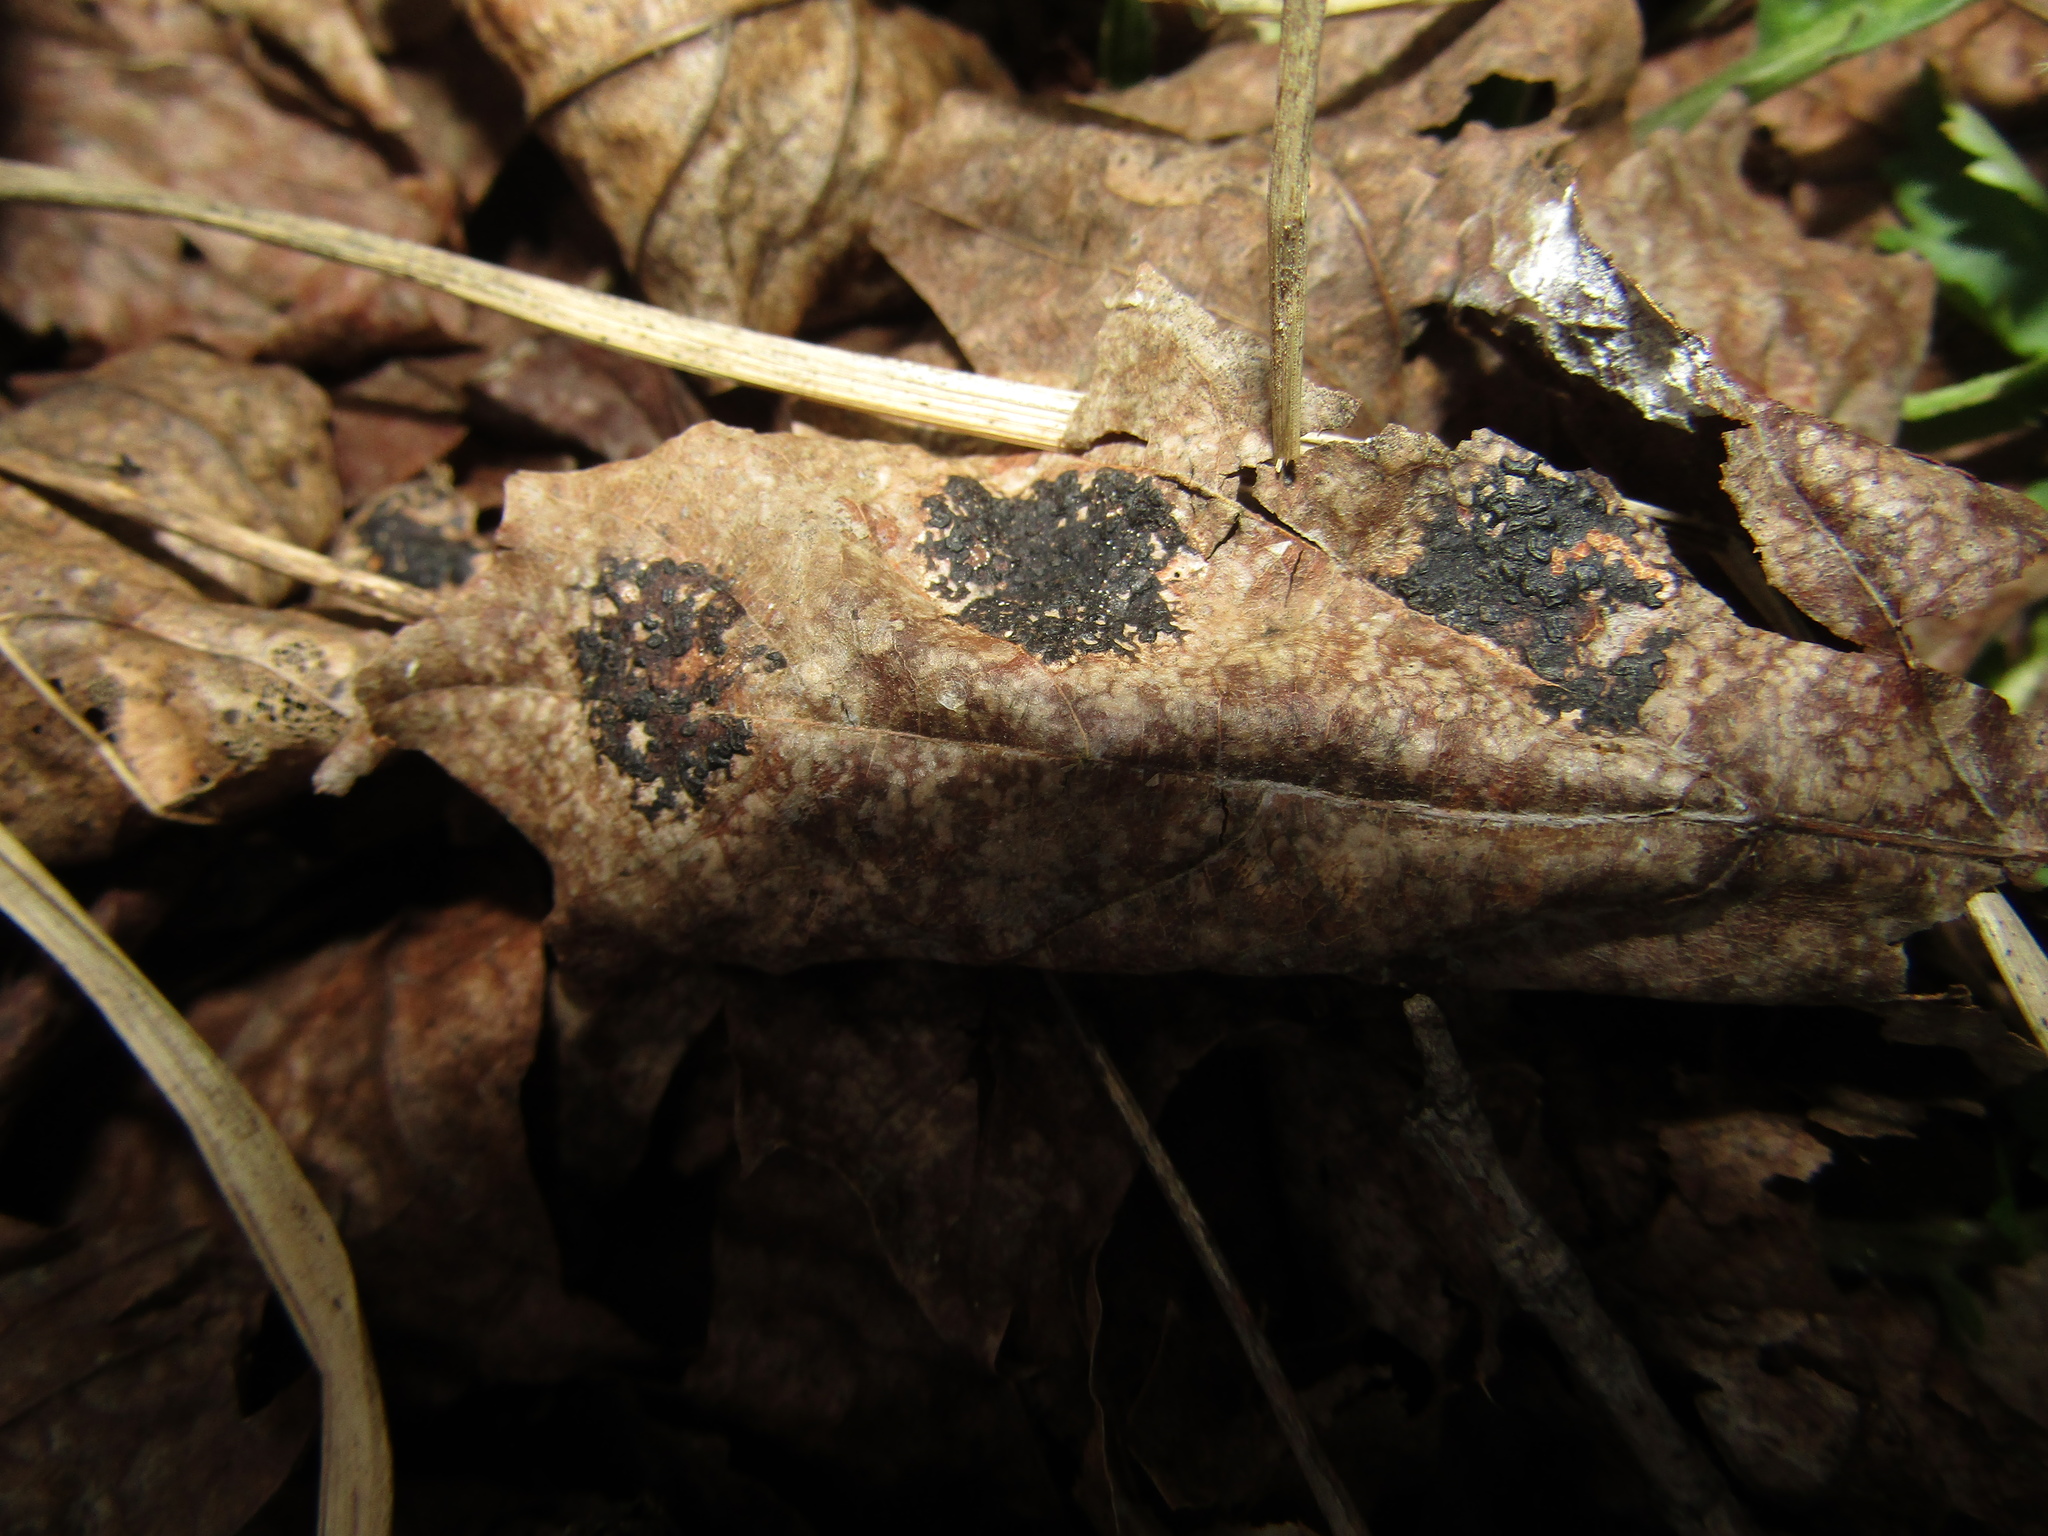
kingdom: Fungi
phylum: Ascomycota
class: Leotiomycetes
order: Rhytismatales
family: Rhytismataceae
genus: Rhytisma
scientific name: Rhytisma acerinum
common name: European tar spot
